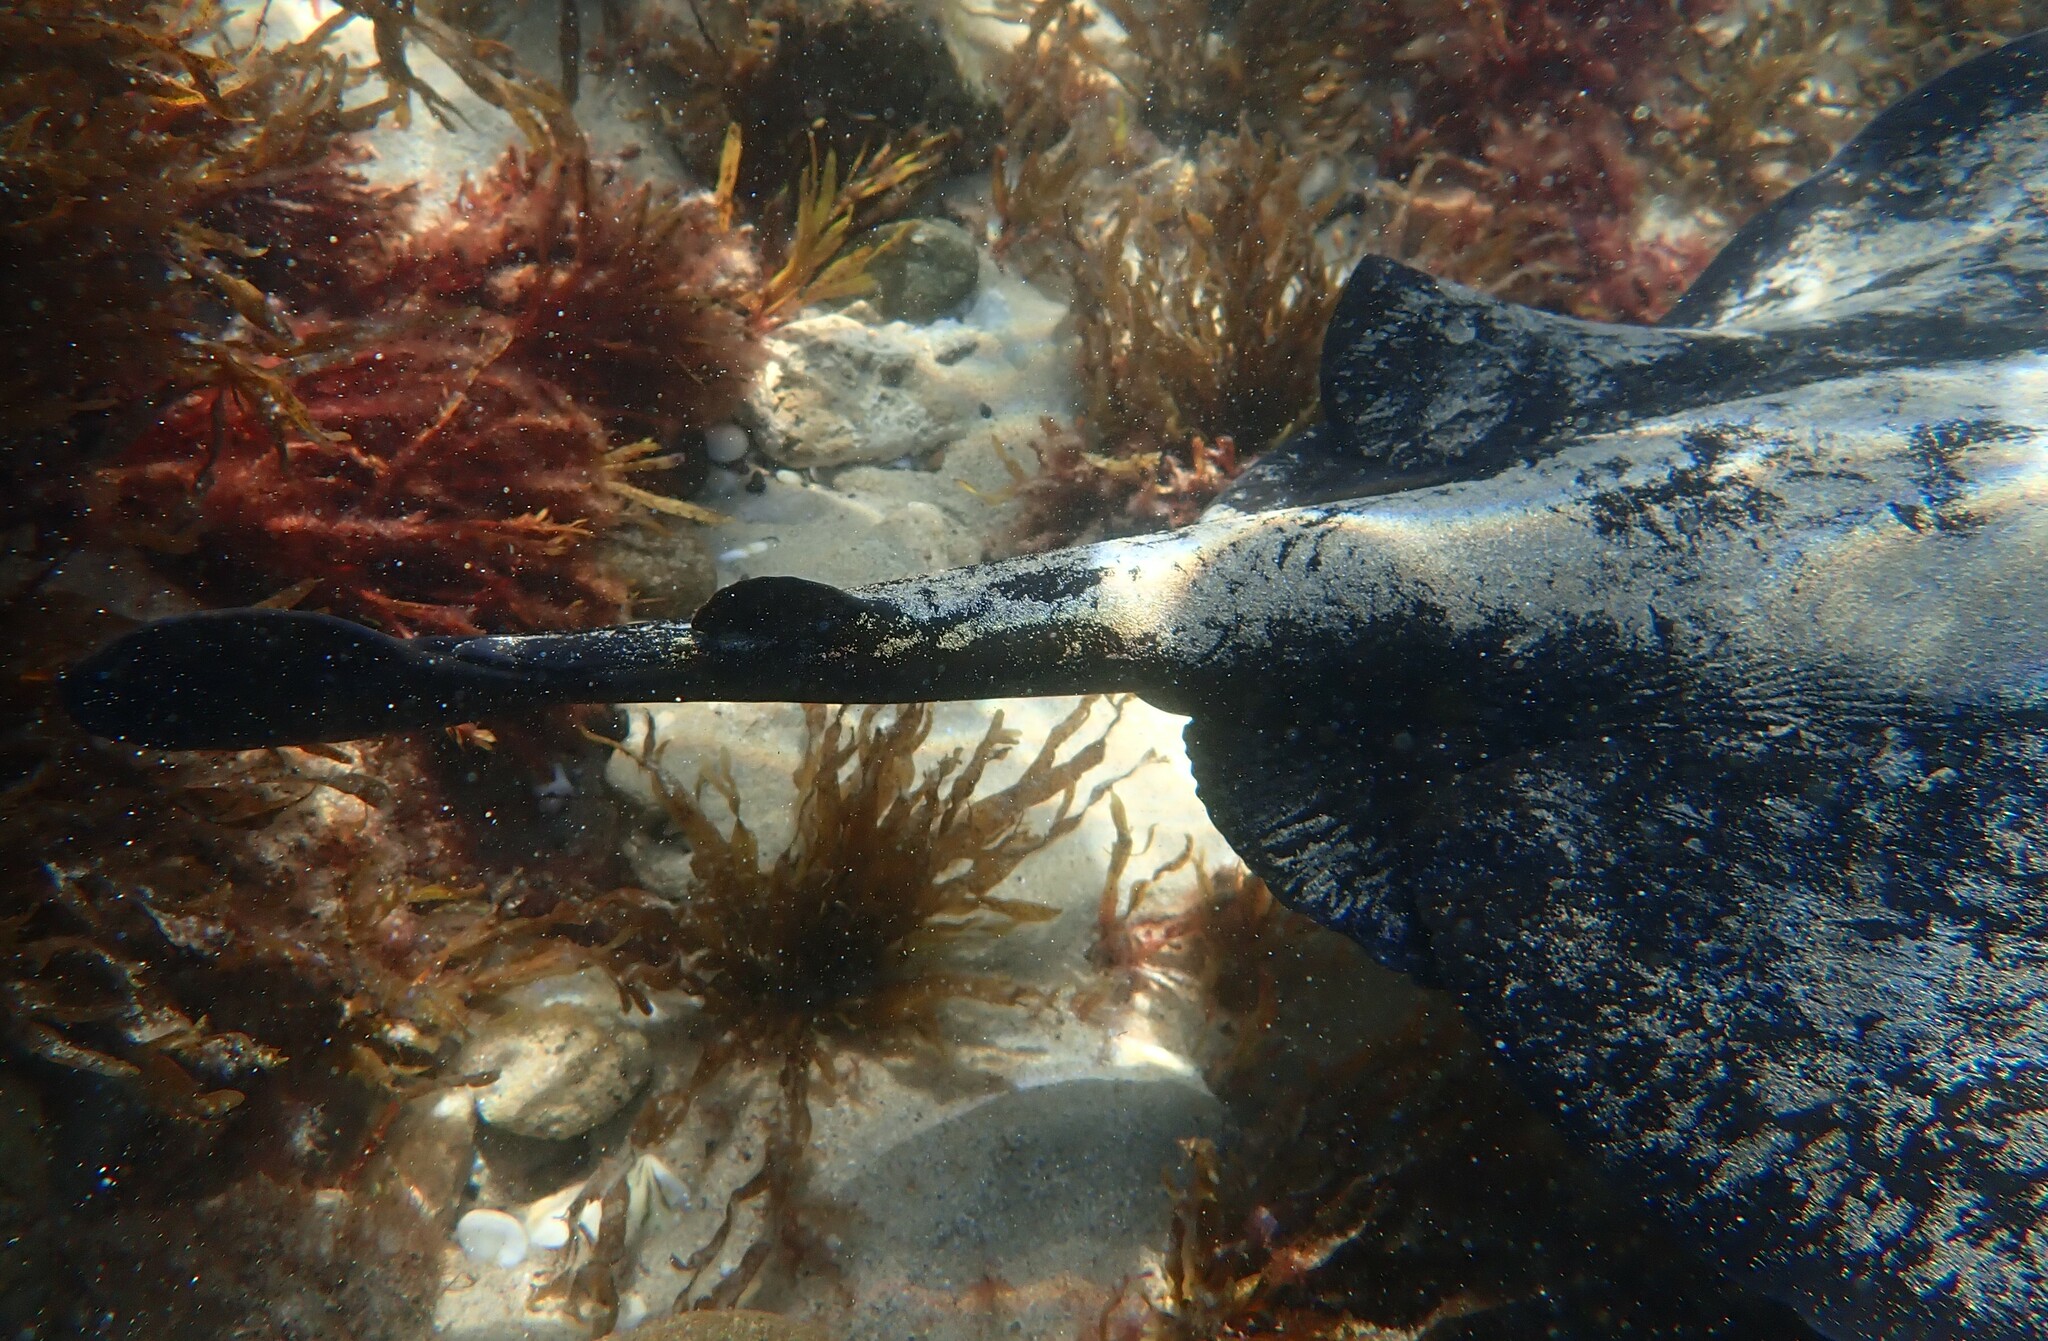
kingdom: Animalia
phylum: Chordata
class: Elasmobranchii
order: Myliobatiformes
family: Urolophidae
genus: Urolophus
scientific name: Urolophus gigas
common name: Spotted stingaree
